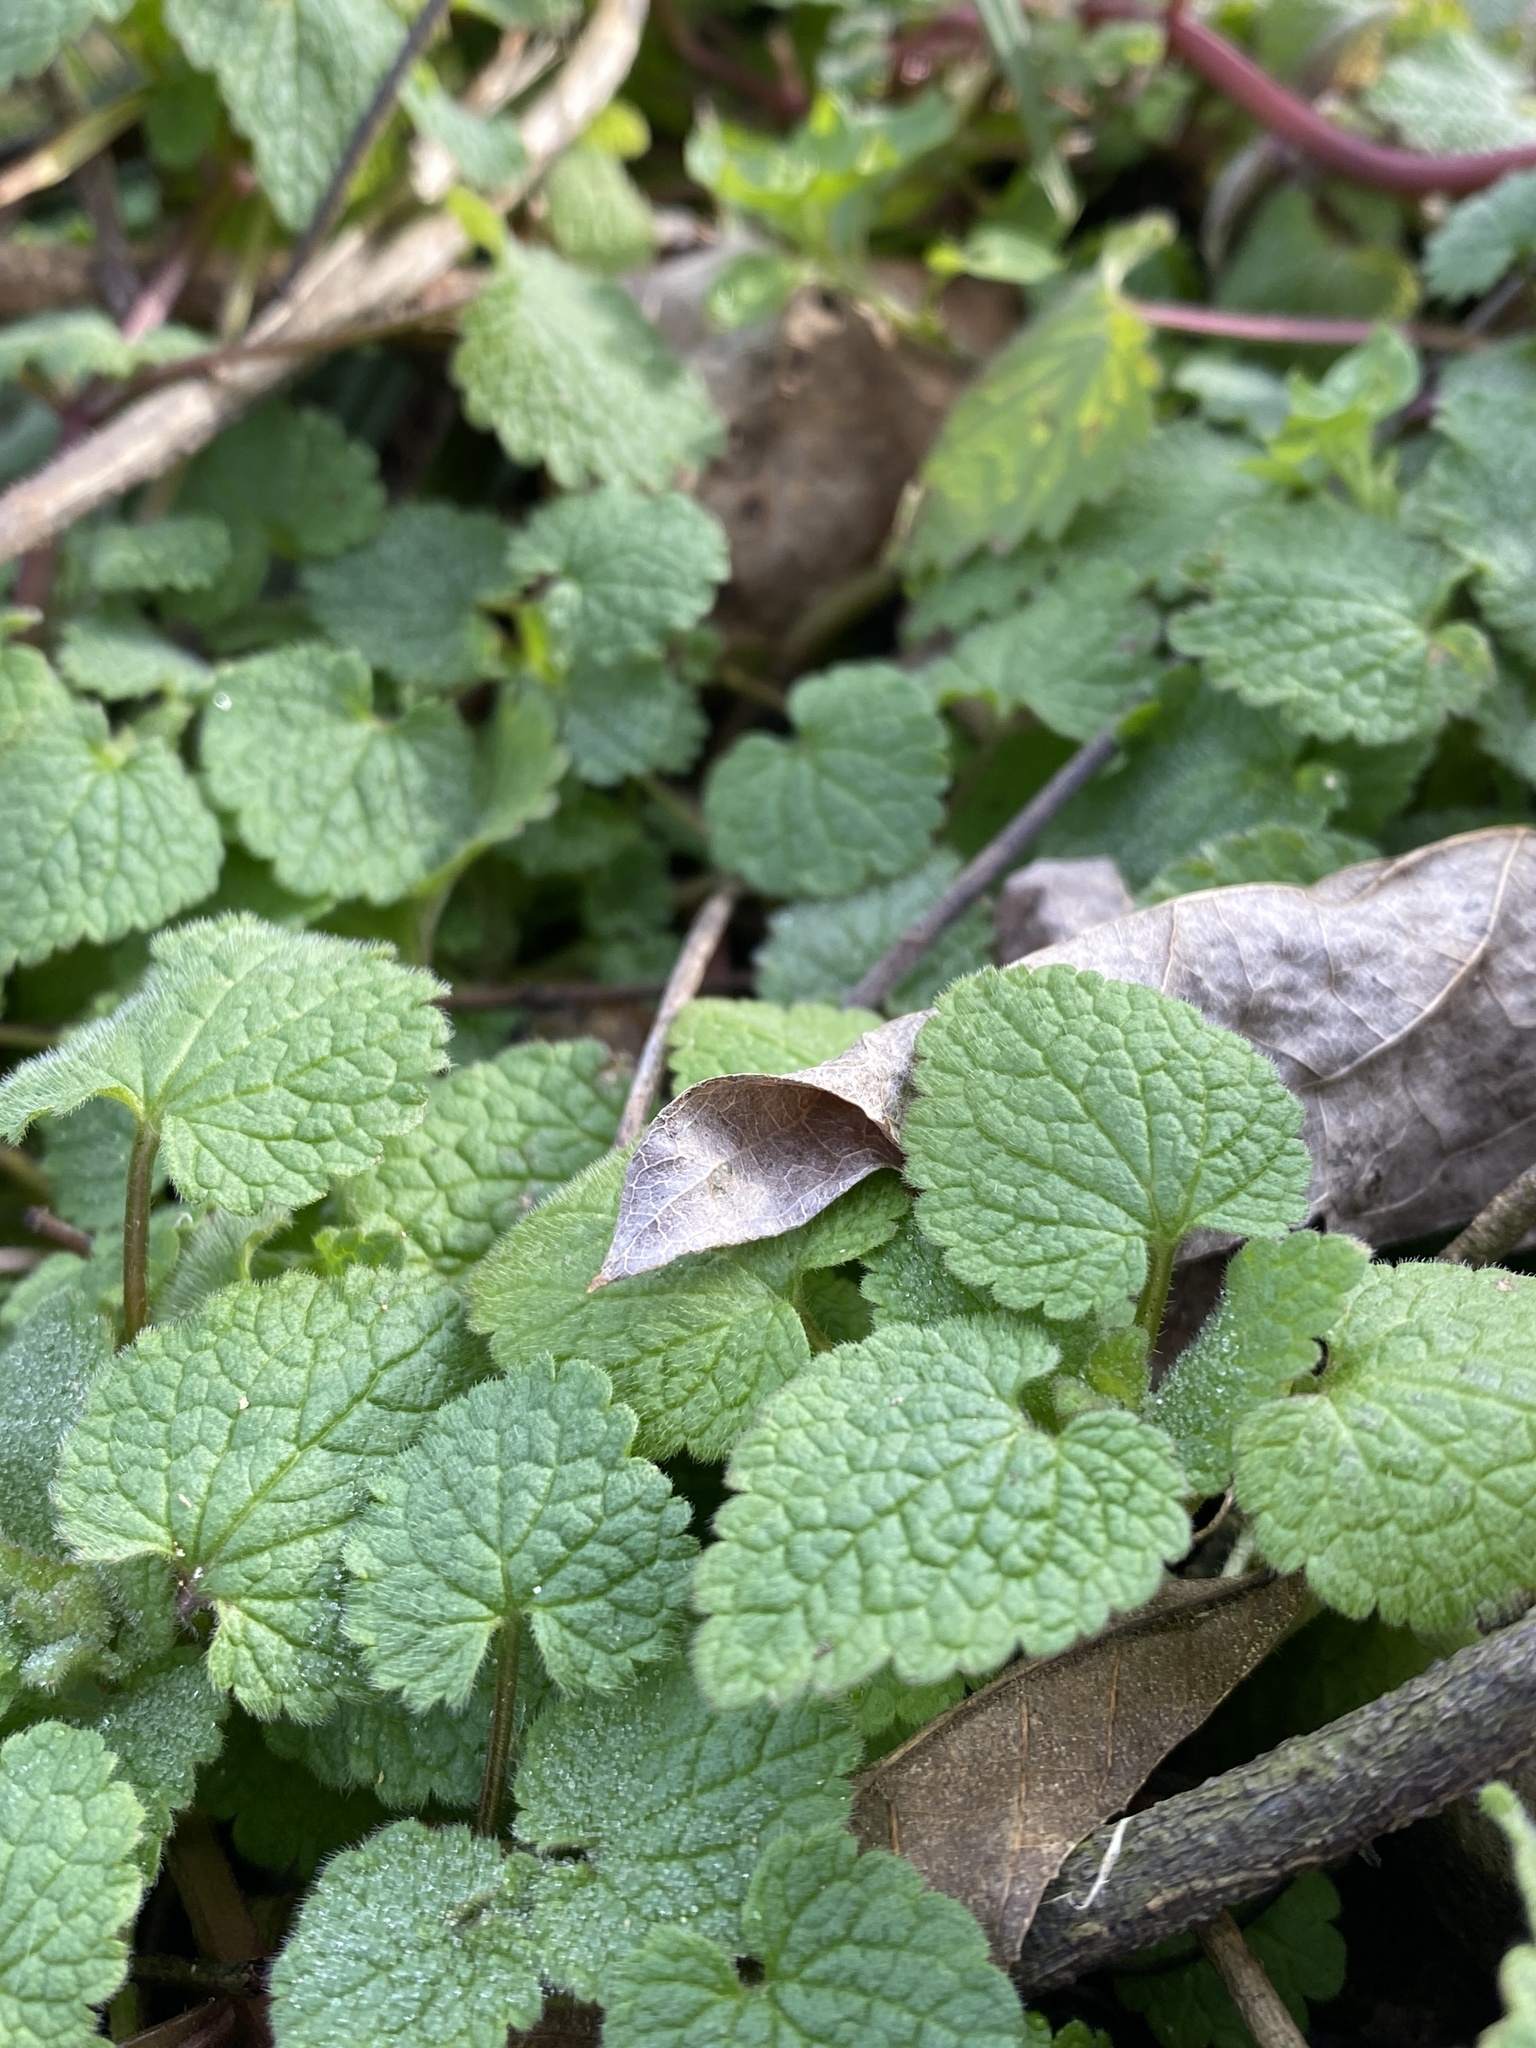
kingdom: Plantae
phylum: Tracheophyta
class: Magnoliopsida
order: Lamiales
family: Lamiaceae
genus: Lamium
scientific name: Lamium purpureum
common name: Red dead-nettle
